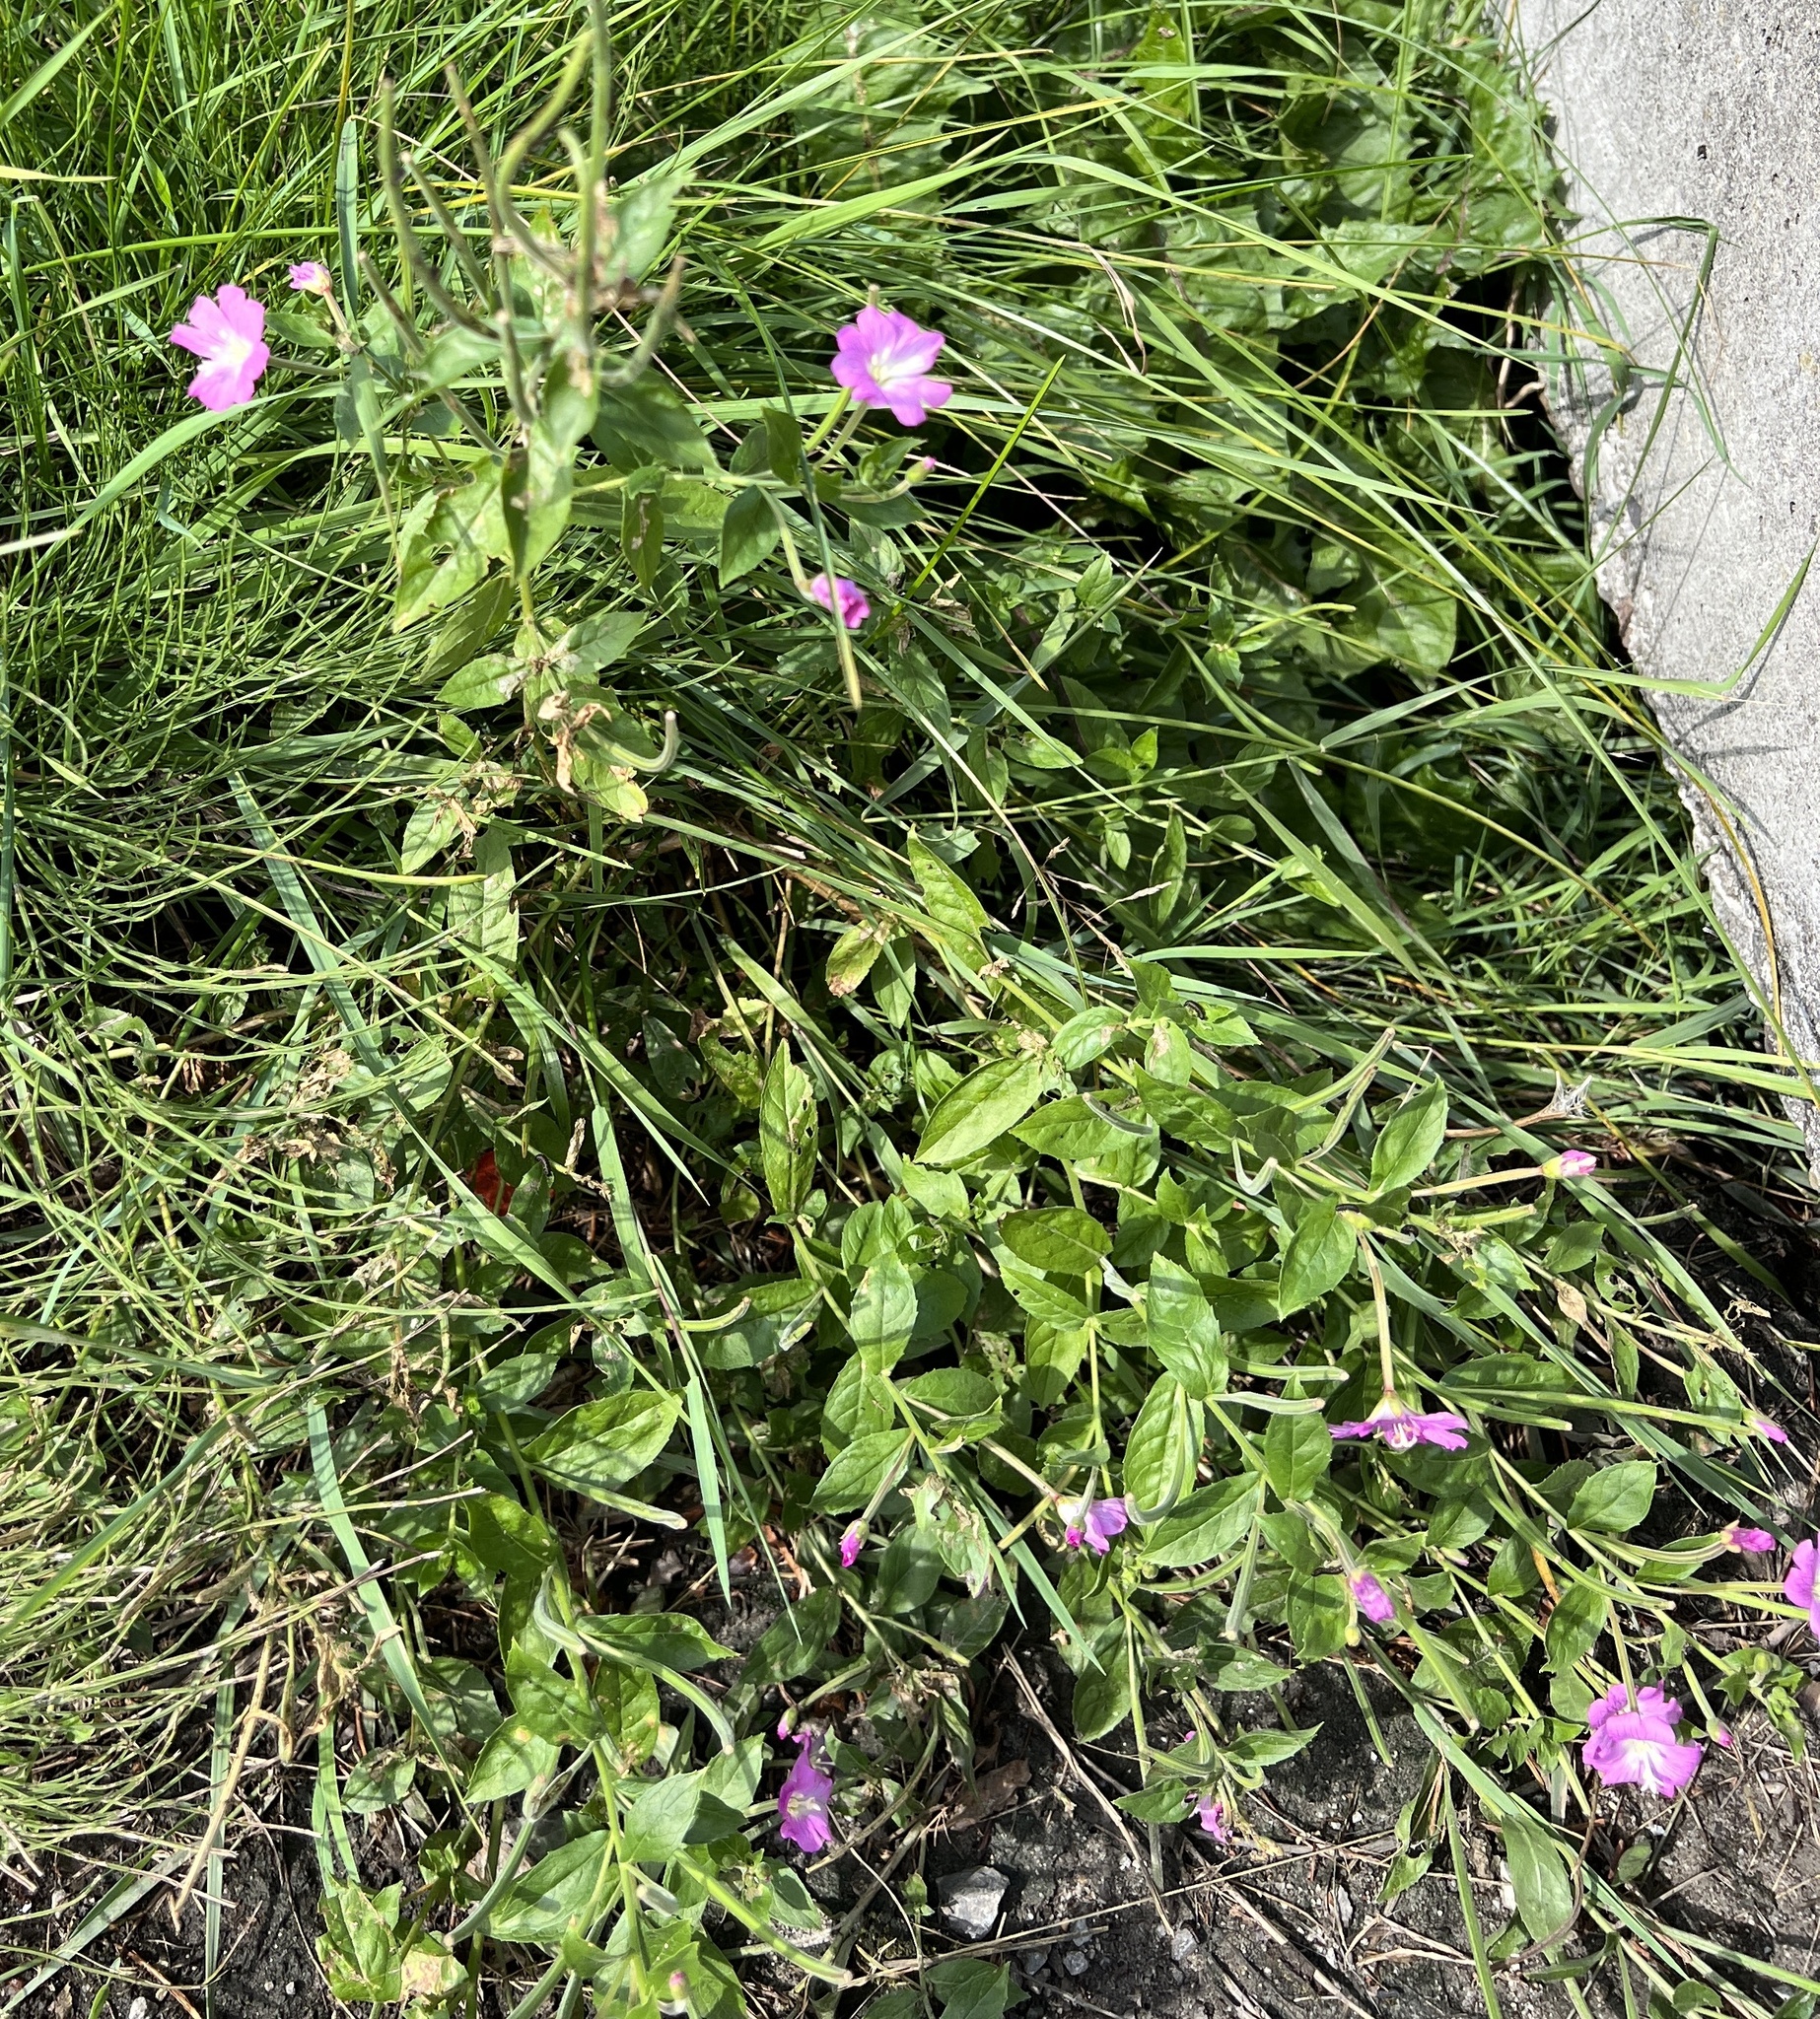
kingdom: Plantae
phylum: Tracheophyta
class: Magnoliopsida
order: Myrtales
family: Onagraceae
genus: Epilobium
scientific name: Epilobium hirsutum
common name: Great willowherb
